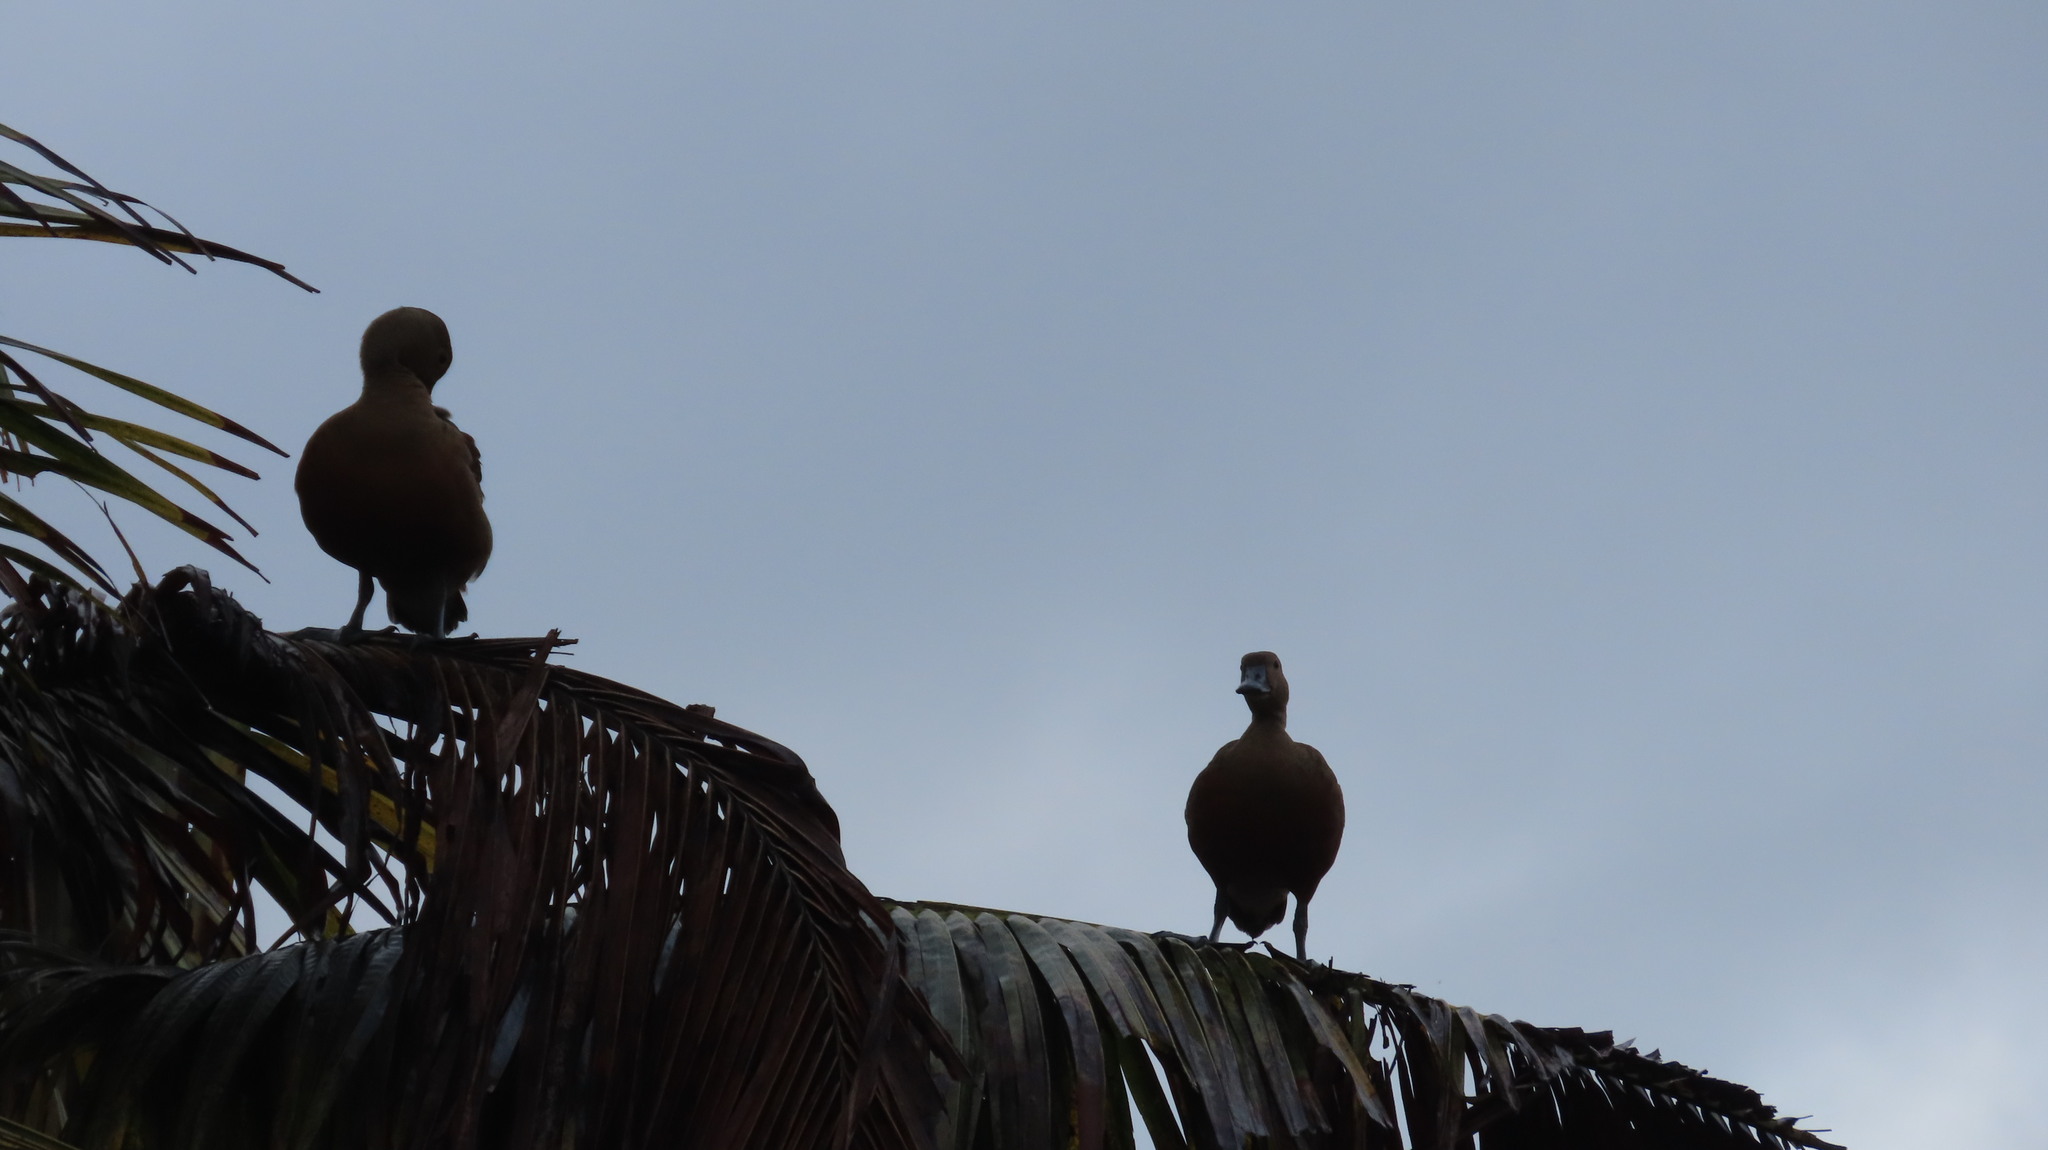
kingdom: Animalia
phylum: Chordata
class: Aves
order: Anseriformes
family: Anatidae
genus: Dendrocygna
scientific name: Dendrocygna javanica
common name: Lesser whistling-duck
